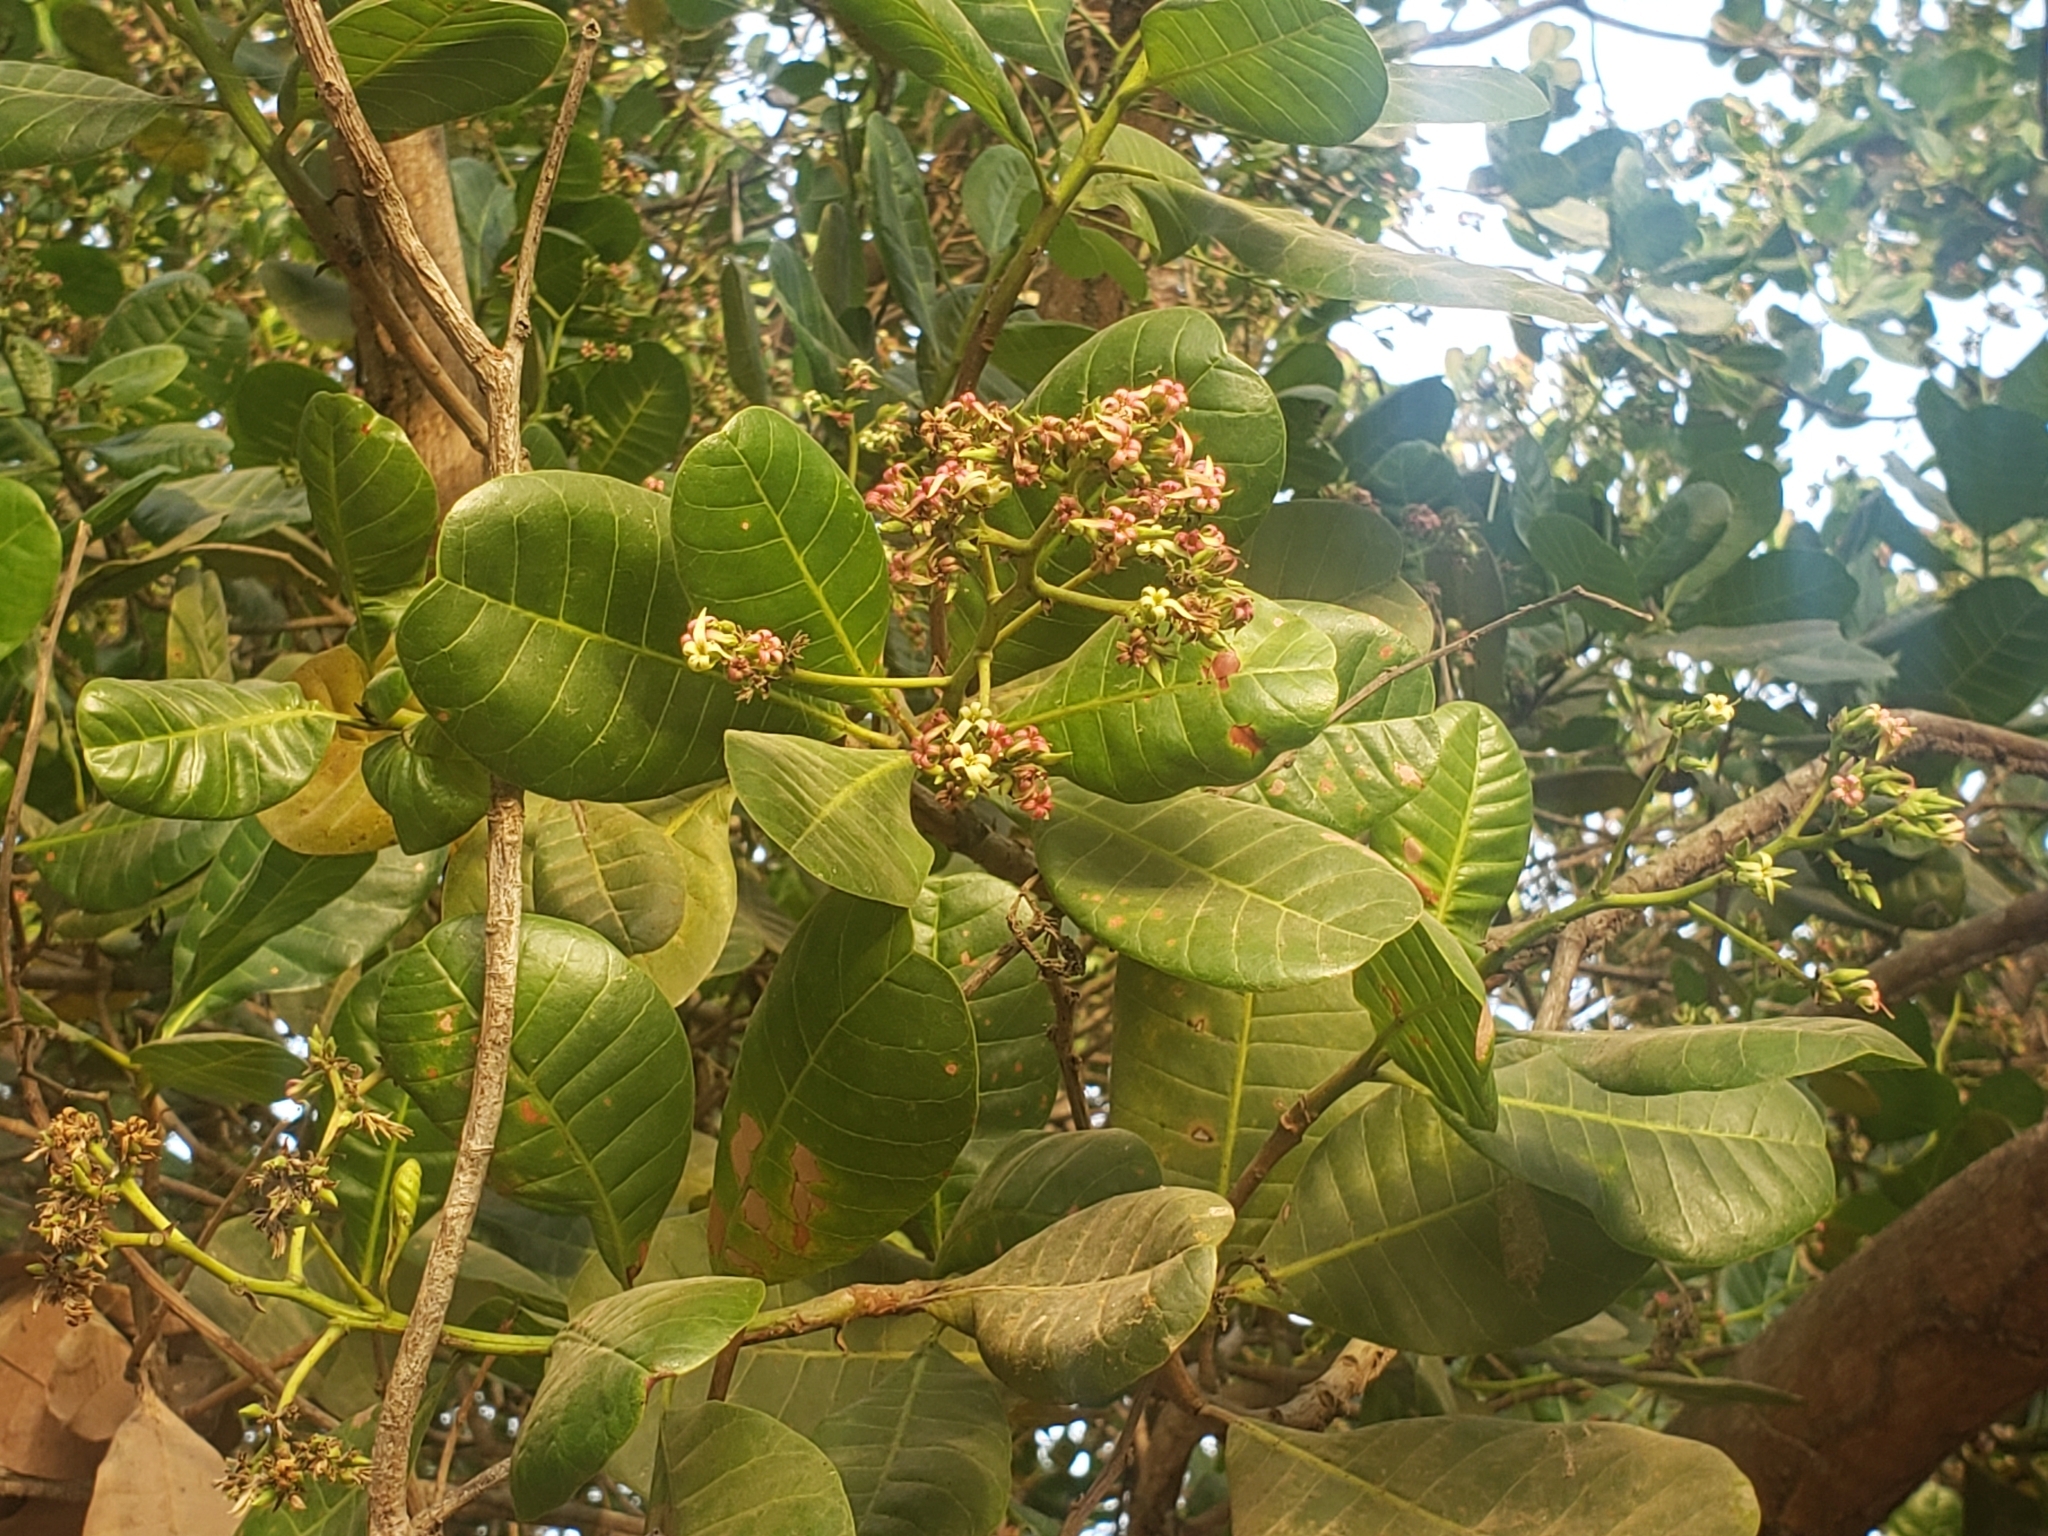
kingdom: Plantae
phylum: Tracheophyta
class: Magnoliopsida
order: Sapindales
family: Anacardiaceae
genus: Anacardium
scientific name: Anacardium occidentale
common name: Cashew
